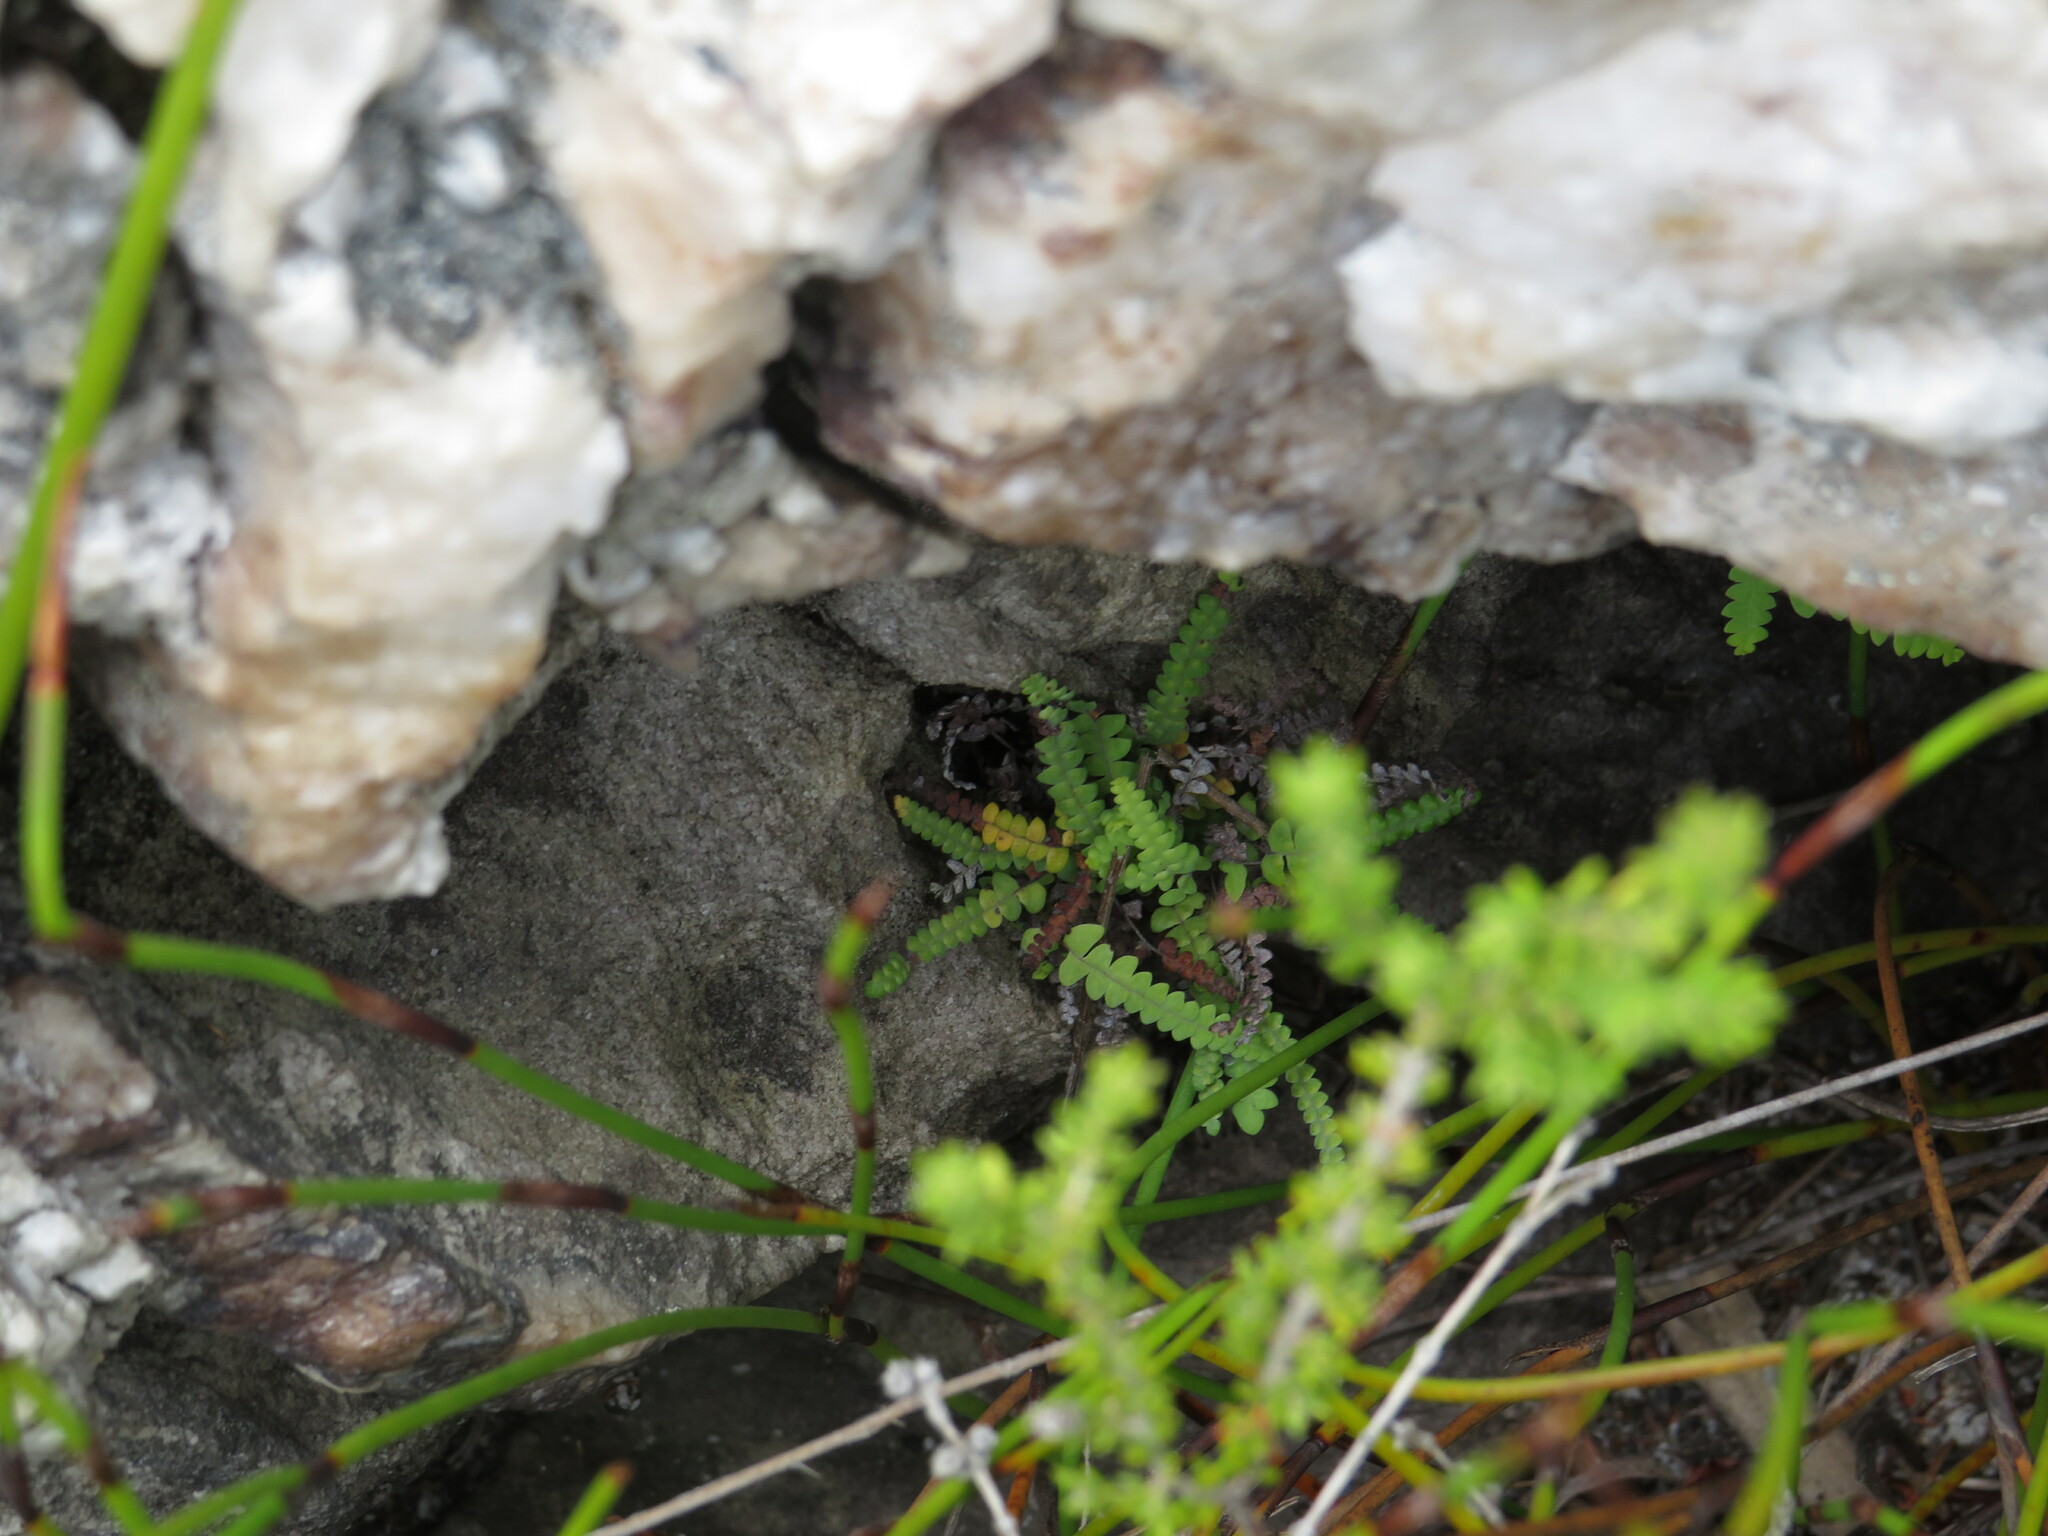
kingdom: Plantae
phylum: Tracheophyta
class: Polypodiopsida
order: Gleicheniales
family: Gleicheniaceae
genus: Gleichenia
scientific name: Gleichenia polypodioides
